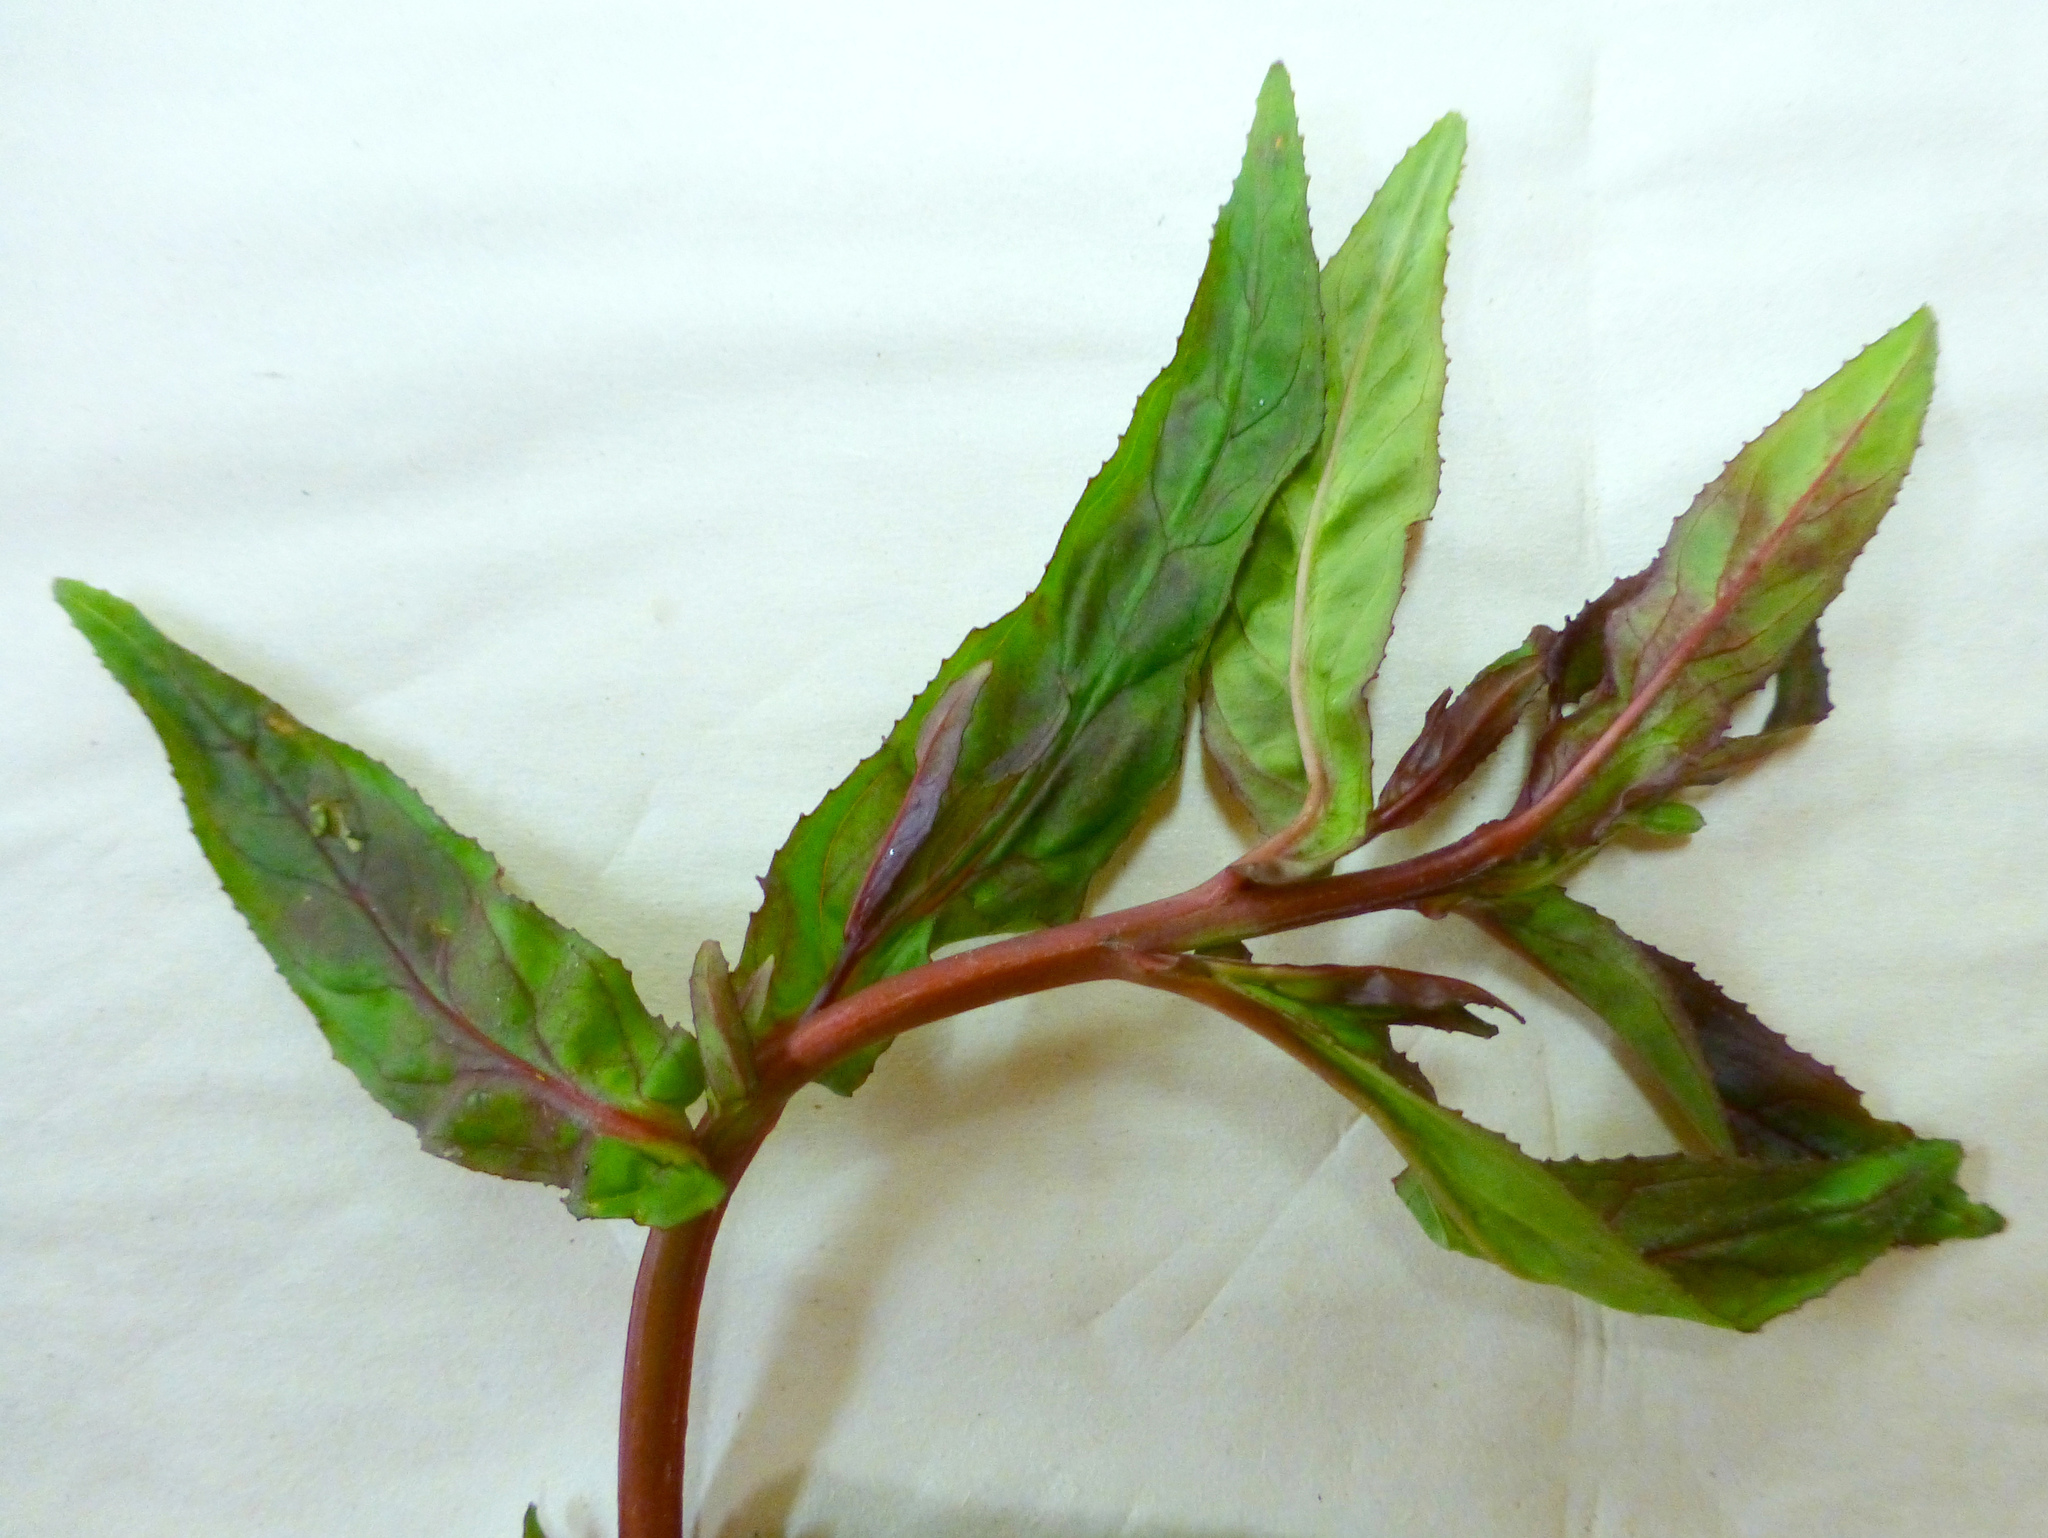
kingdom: Plantae
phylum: Tracheophyta
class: Magnoliopsida
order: Myrtales
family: Onagraceae
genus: Epilobium
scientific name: Epilobium ciliatum
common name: American willowherb
